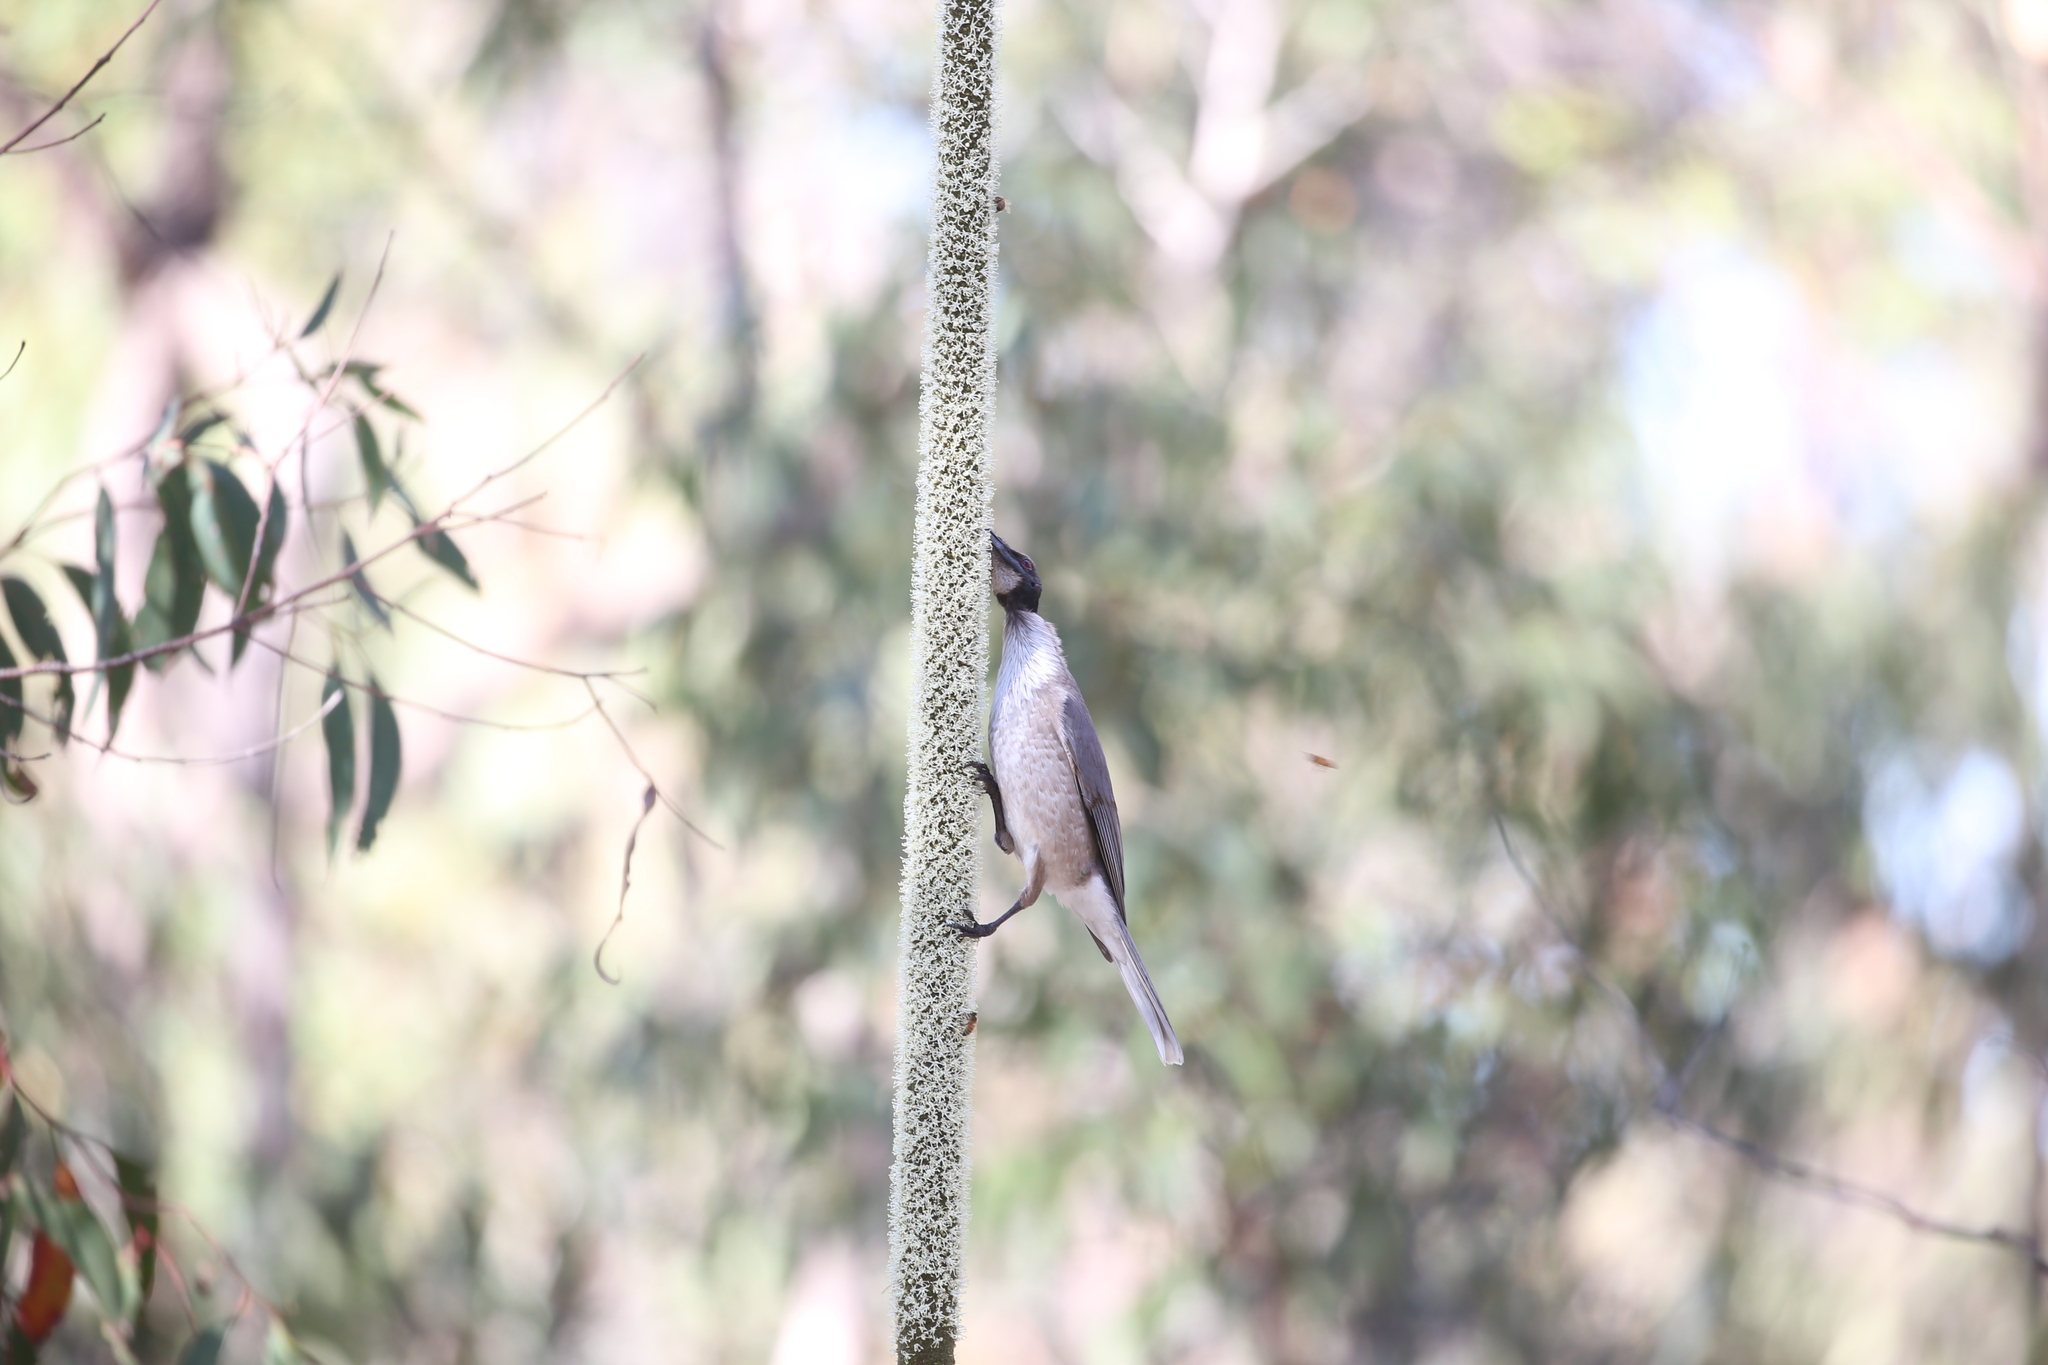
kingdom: Animalia
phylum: Chordata
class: Aves
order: Passeriformes
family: Meliphagidae
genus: Philemon
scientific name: Philemon corniculatus
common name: Noisy friarbird
